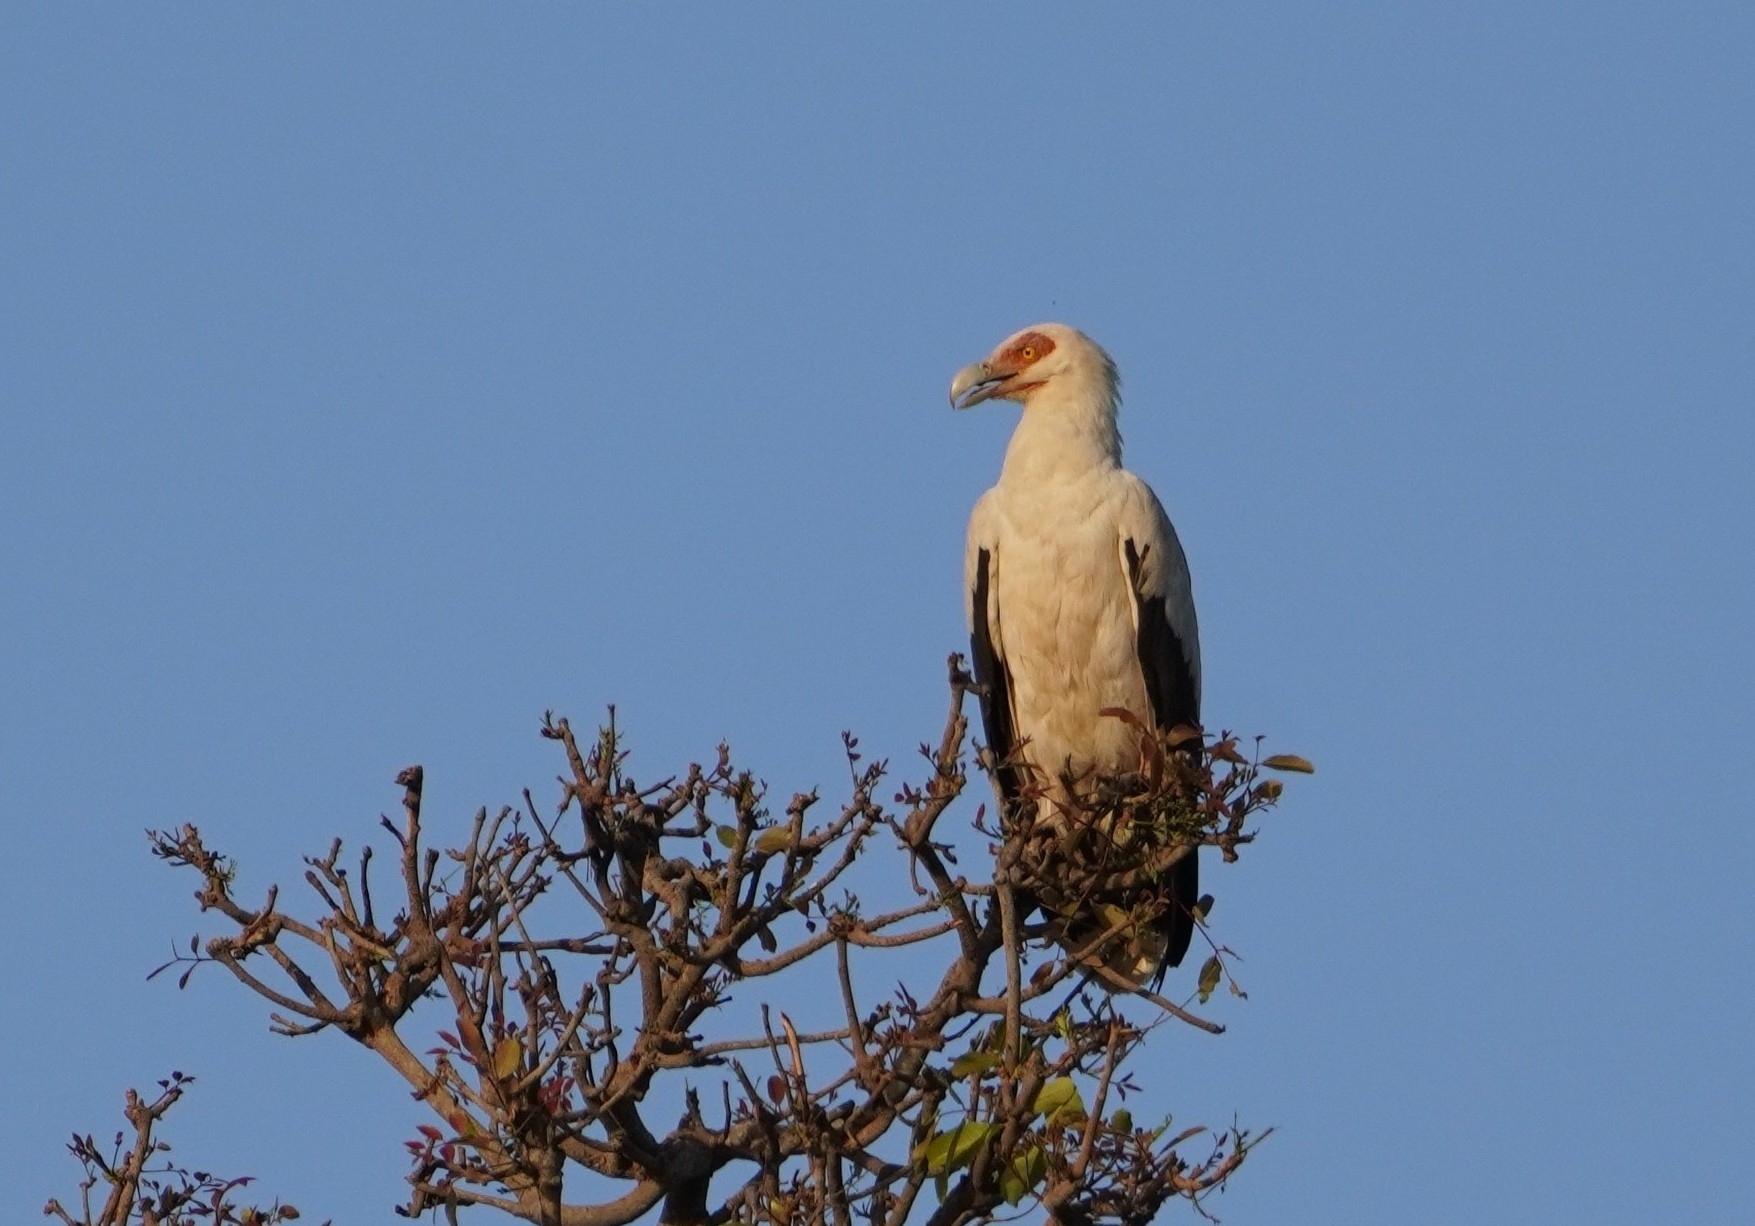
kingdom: Animalia
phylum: Chordata
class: Aves
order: Accipitriformes
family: Accipitridae
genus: Gypohierax
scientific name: Gypohierax angolensis
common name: Palm-nut vulture
